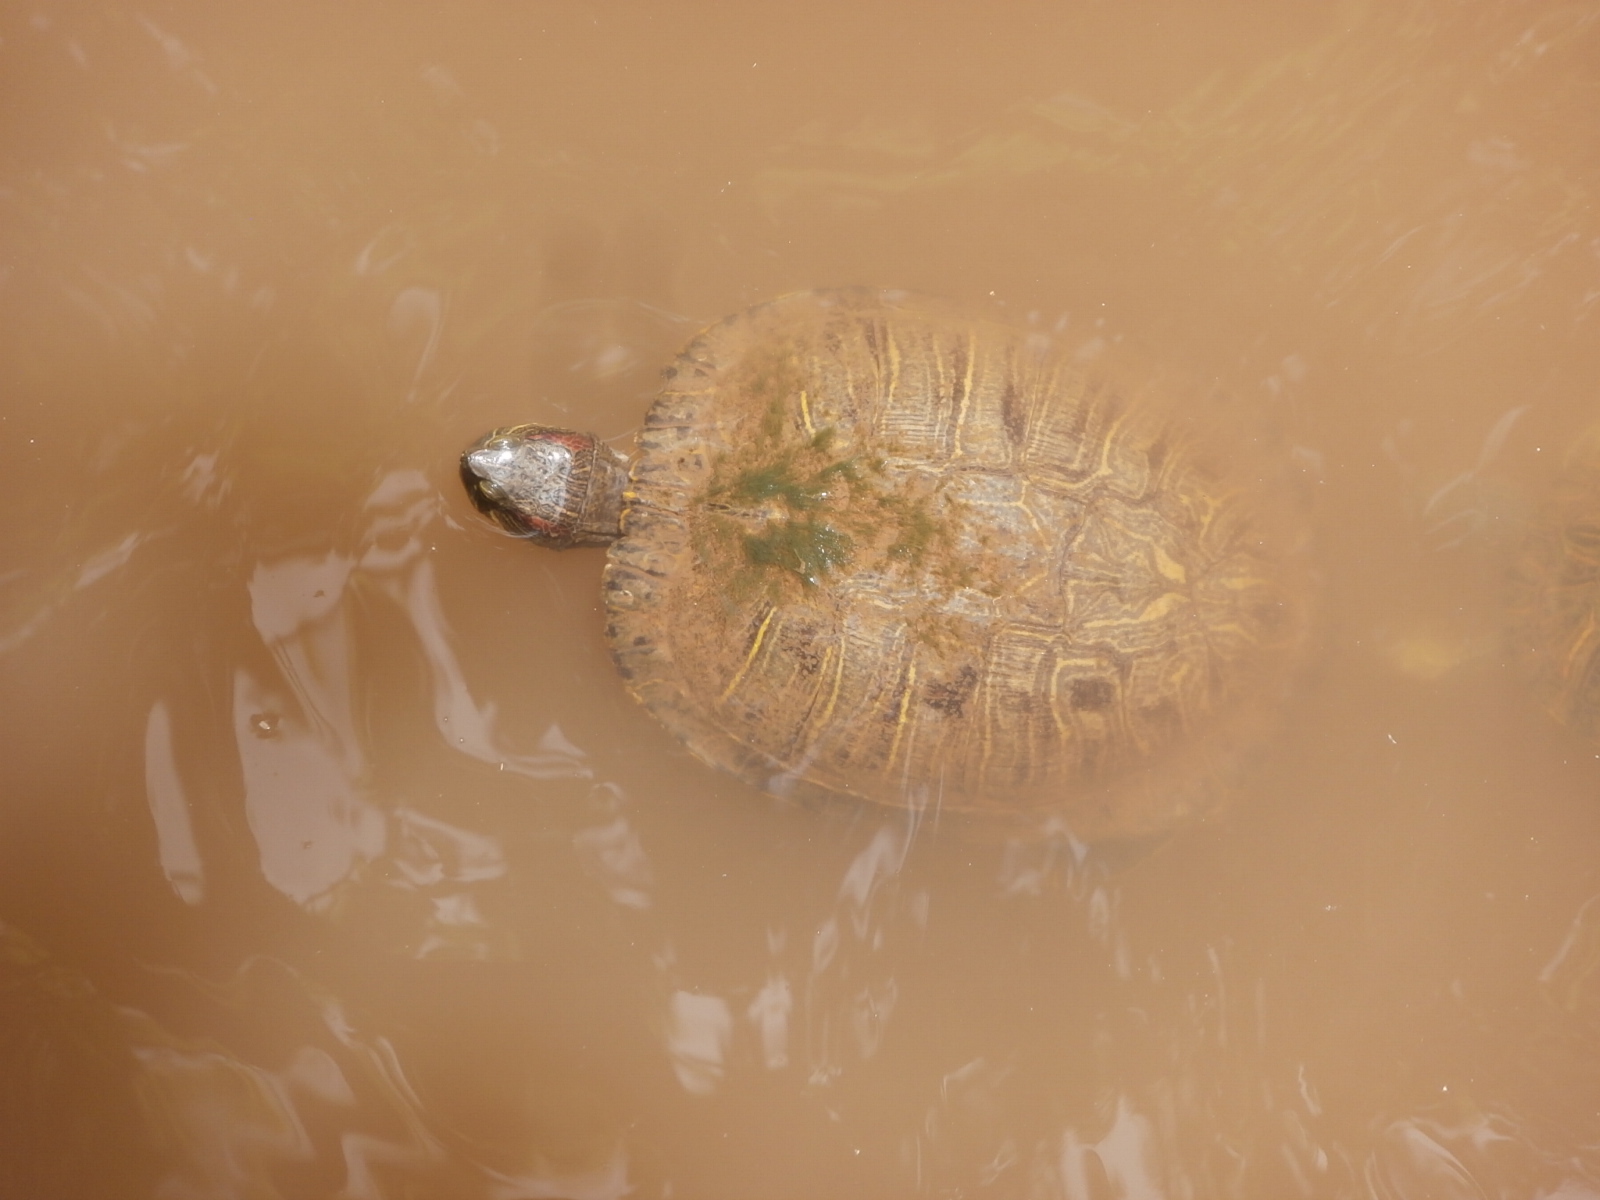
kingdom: Animalia
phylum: Chordata
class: Testudines
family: Emydidae
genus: Trachemys
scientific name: Trachemys scripta
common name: Slider
